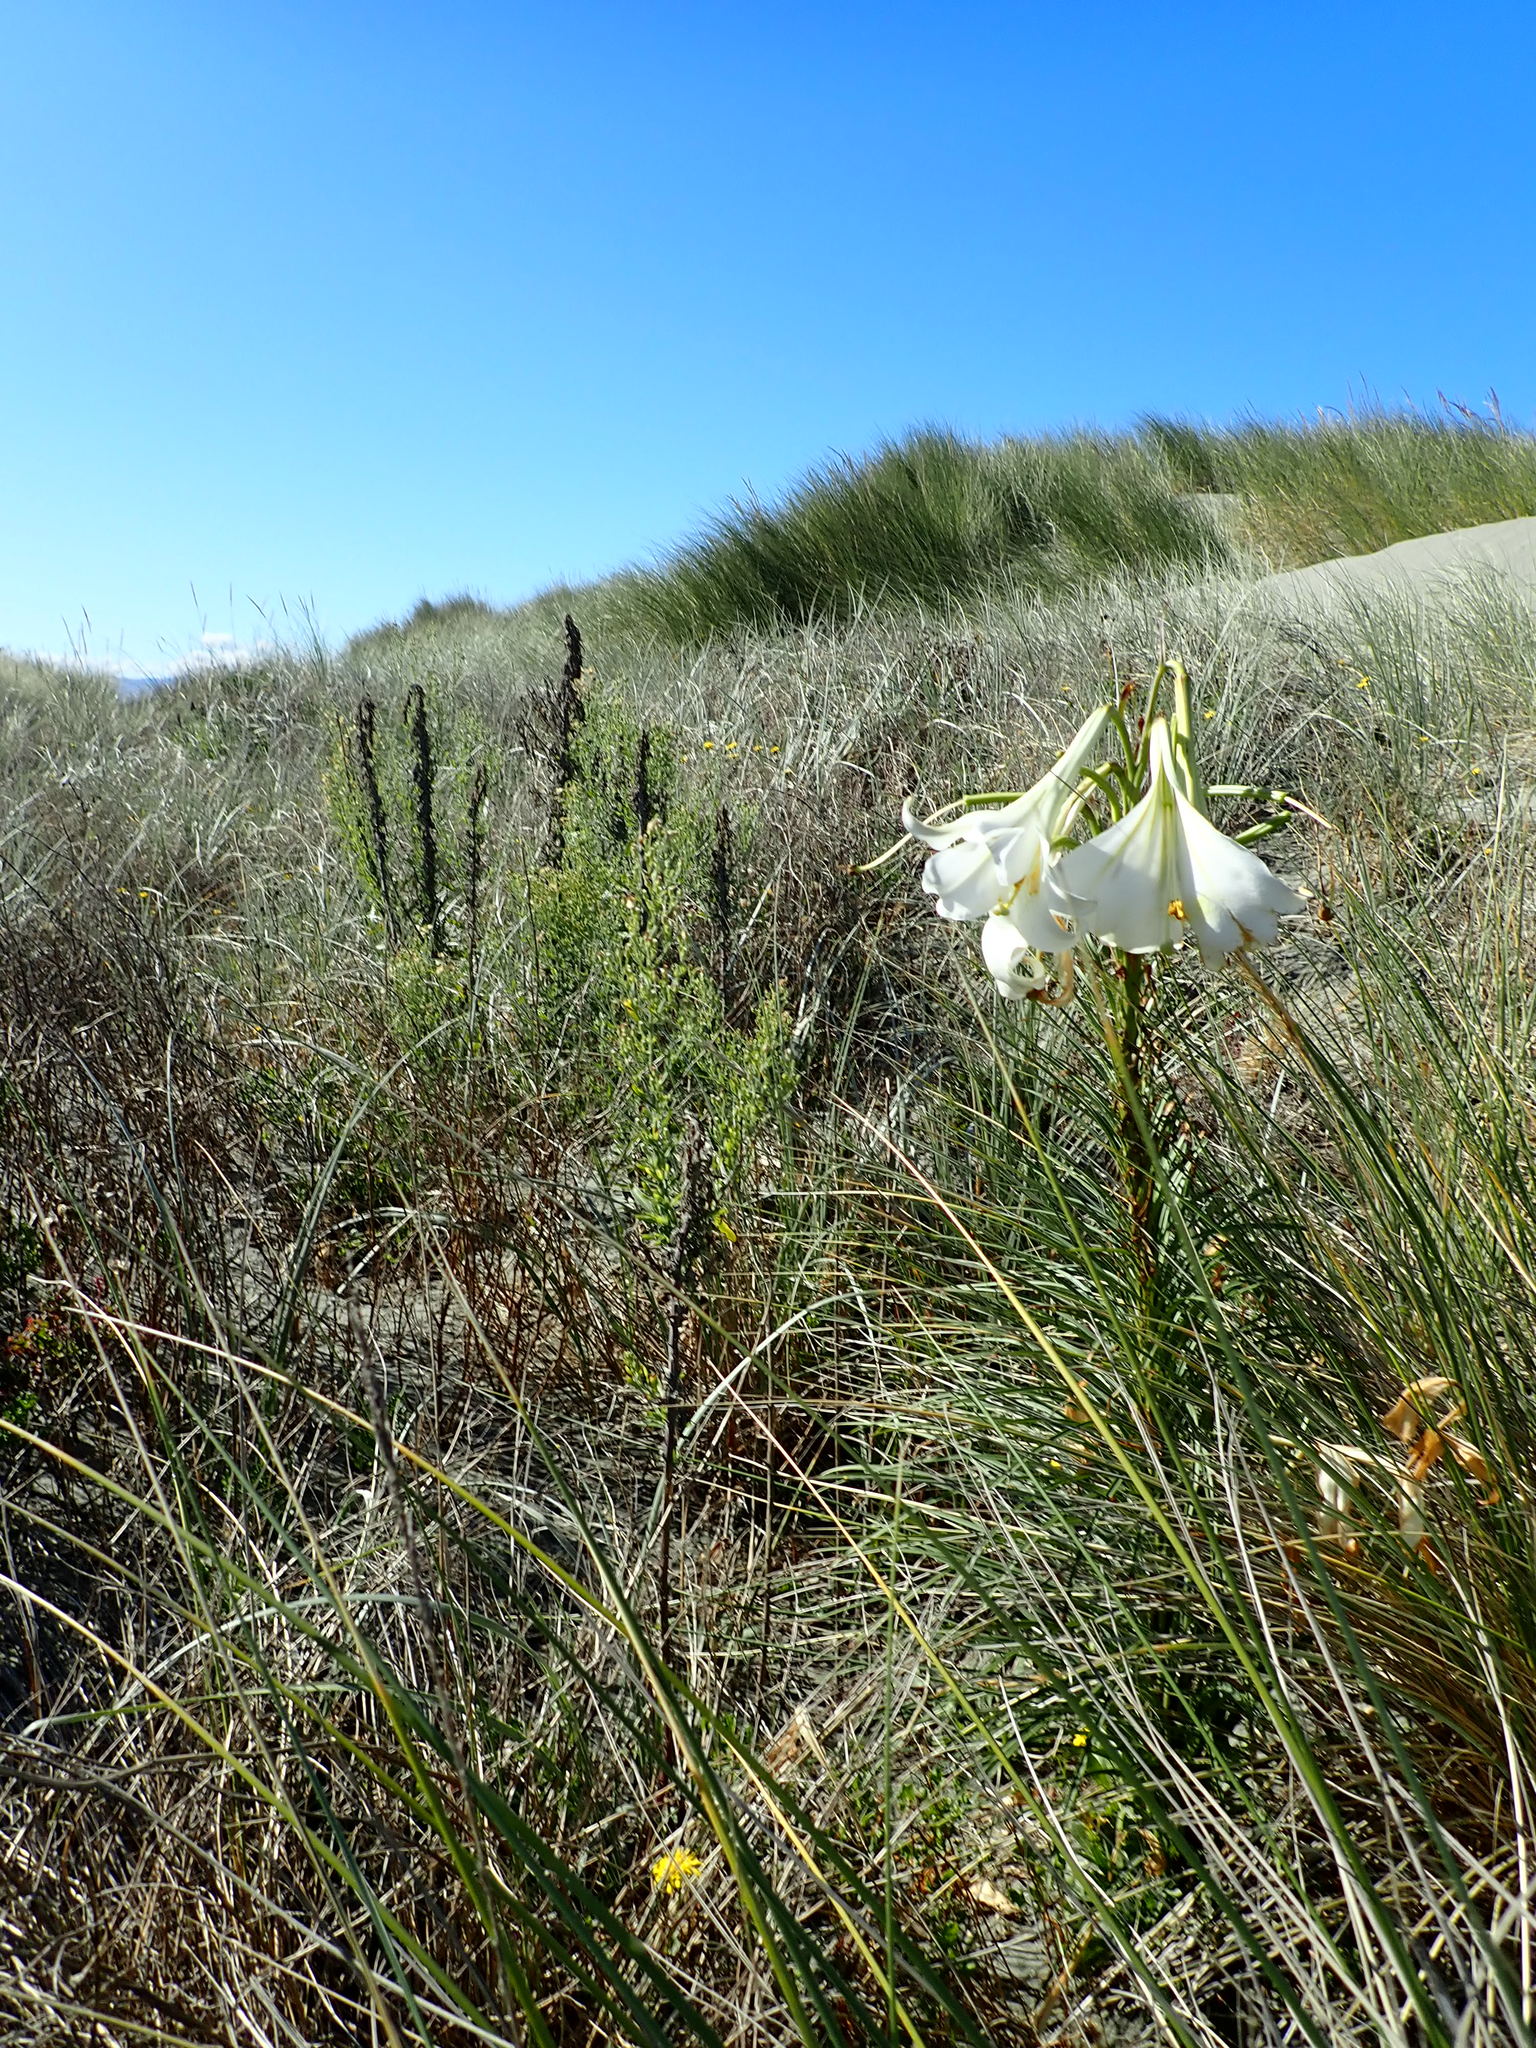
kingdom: Plantae
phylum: Tracheophyta
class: Liliopsida
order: Liliales
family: Liliaceae
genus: Lilium
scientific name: Lilium formosanum
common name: Formosa lily
